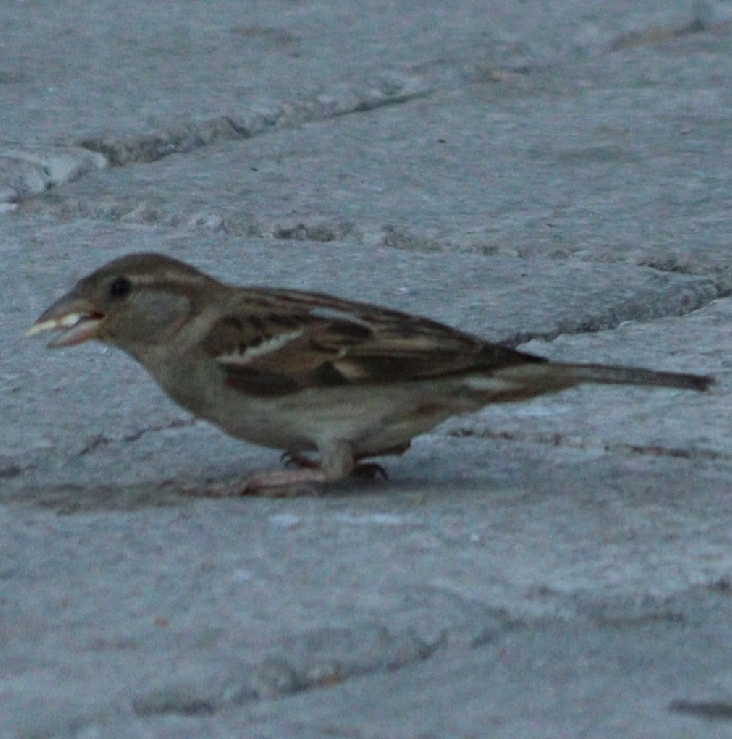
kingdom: Animalia
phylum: Chordata
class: Aves
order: Passeriformes
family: Passeridae
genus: Passer
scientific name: Passer domesticus
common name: House sparrow
